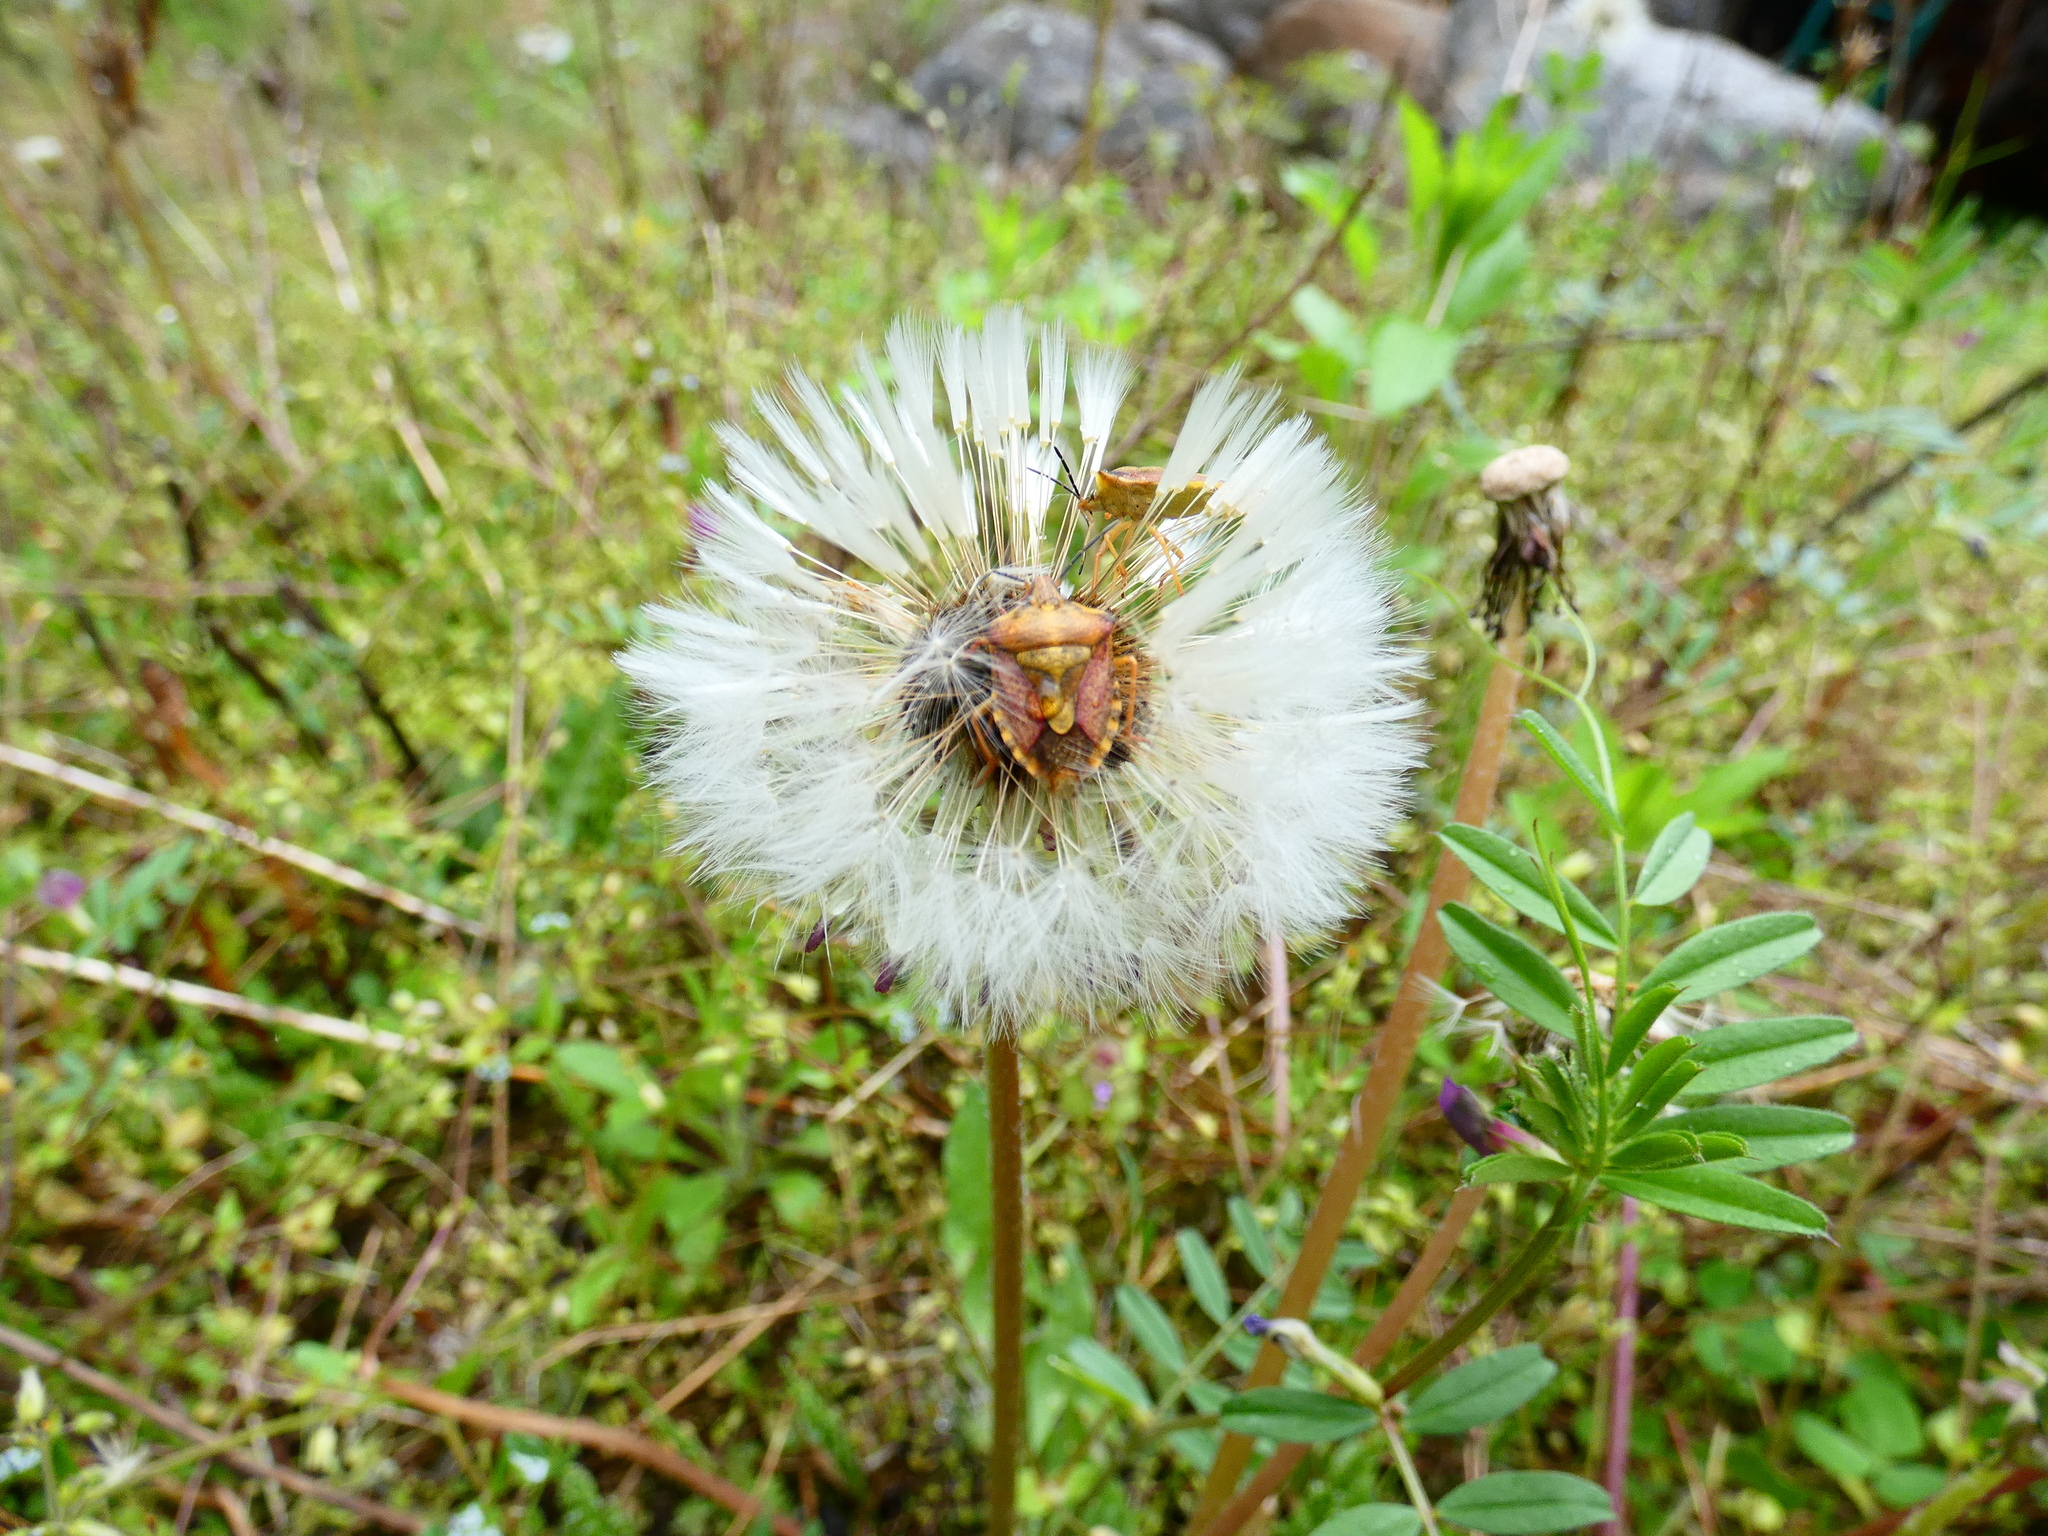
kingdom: Animalia
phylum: Arthropoda
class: Insecta
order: Hemiptera
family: Pentatomidae
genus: Carpocoris
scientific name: Carpocoris purpureipennis
